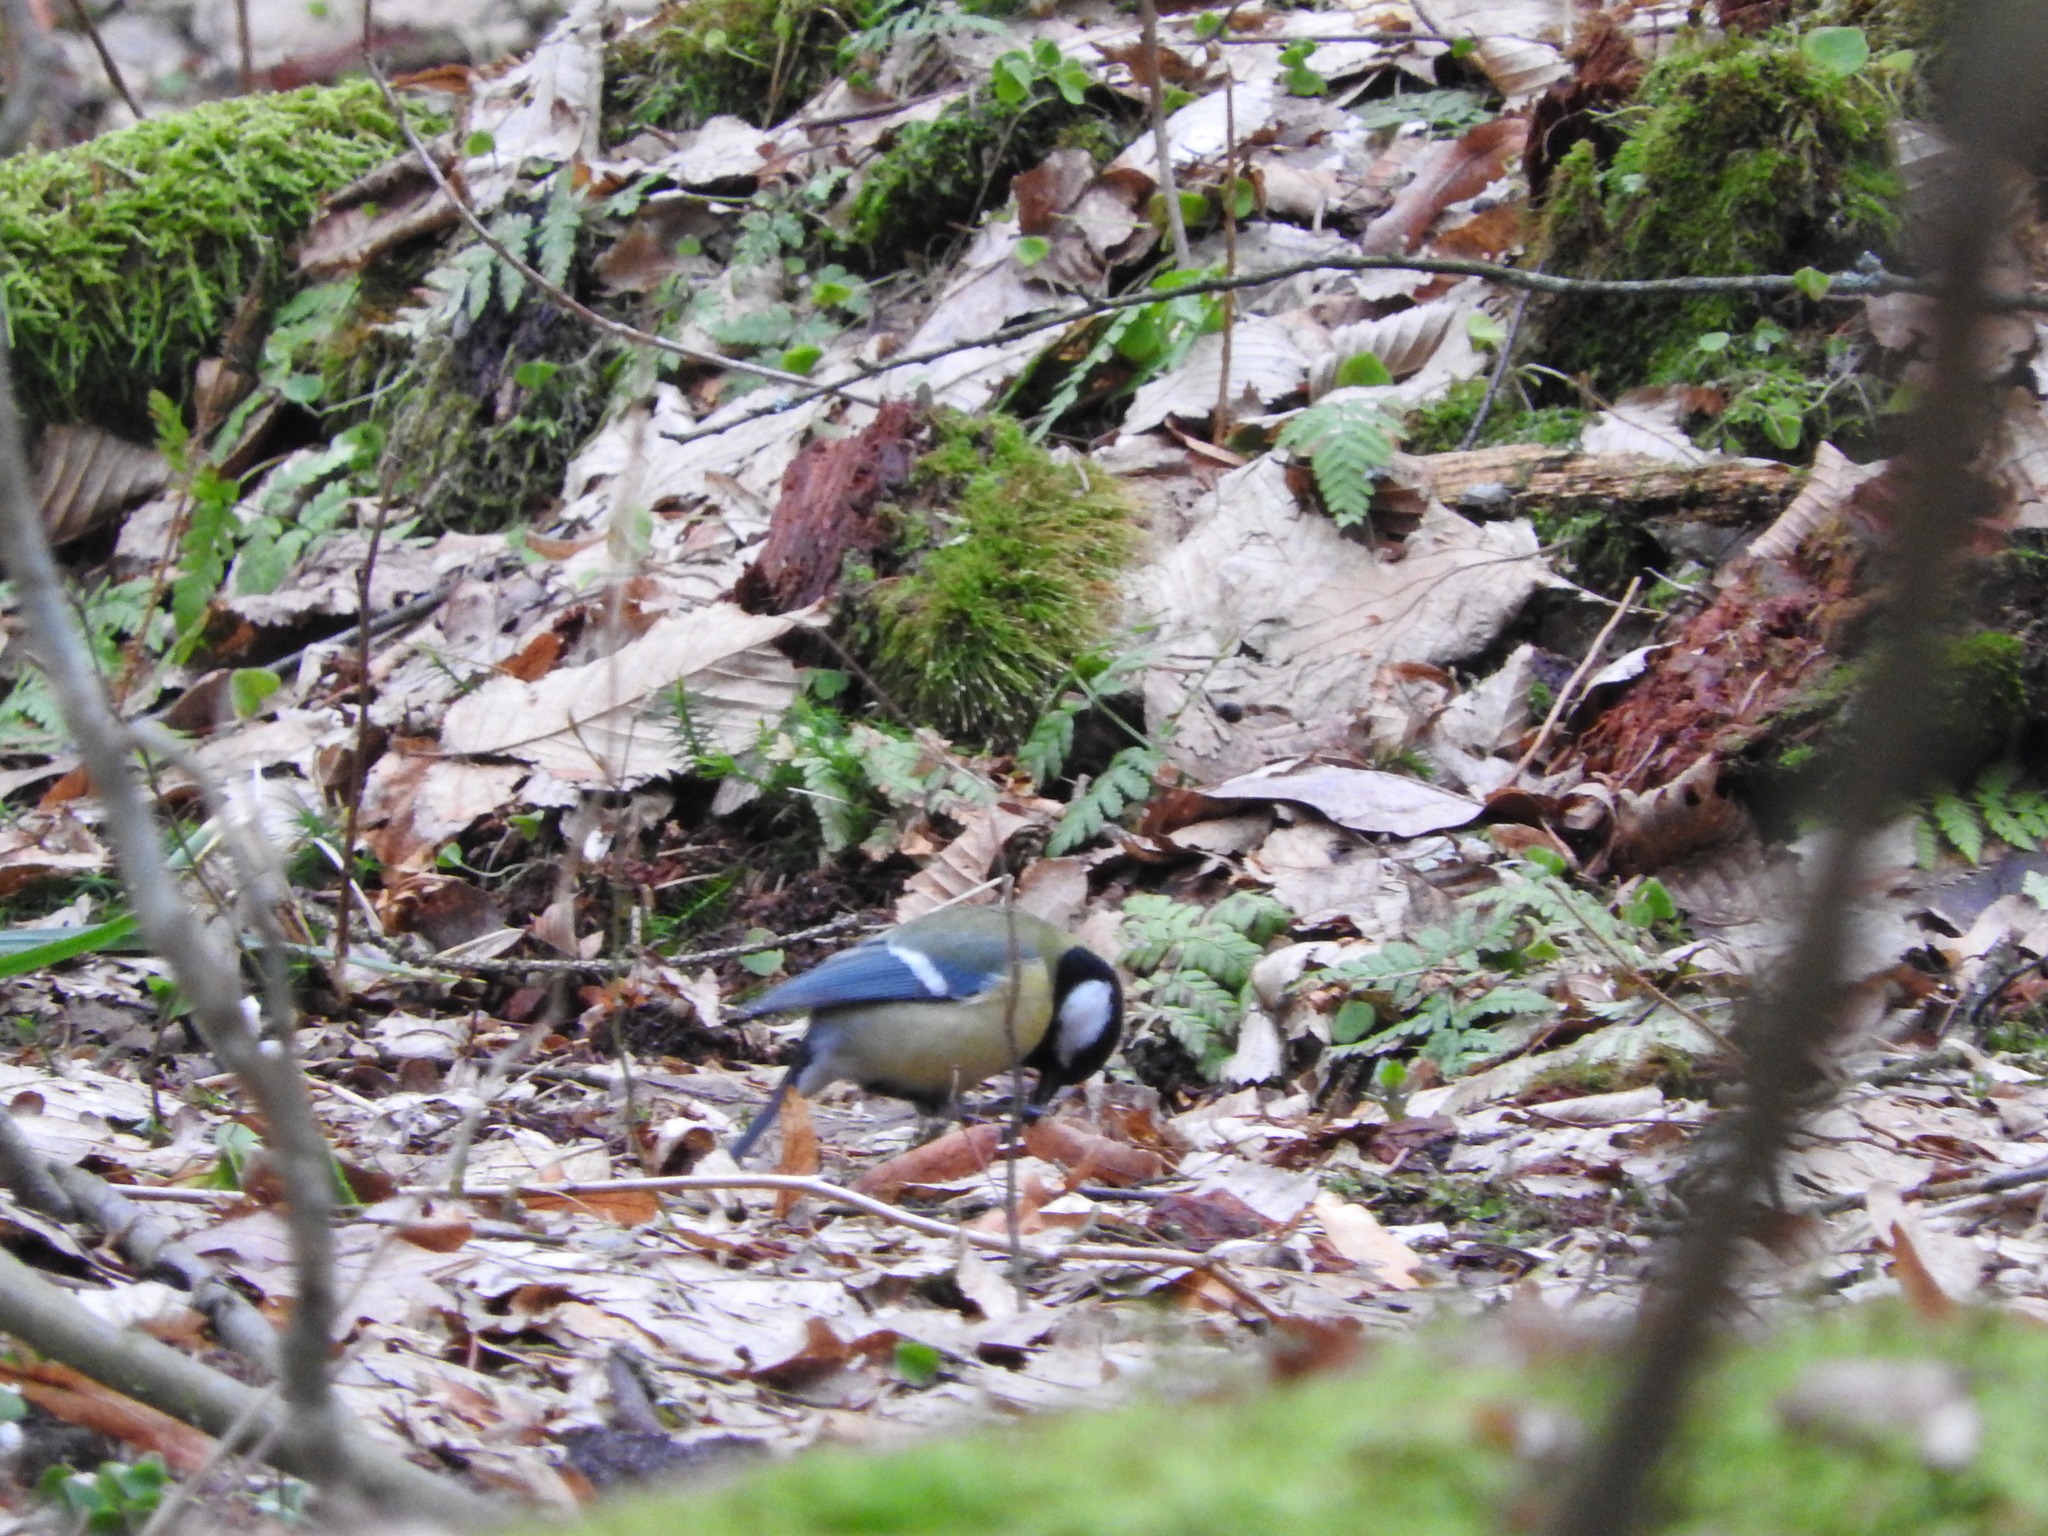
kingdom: Animalia
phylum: Chordata
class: Aves
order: Passeriformes
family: Paridae
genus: Parus
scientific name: Parus major
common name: Great tit
